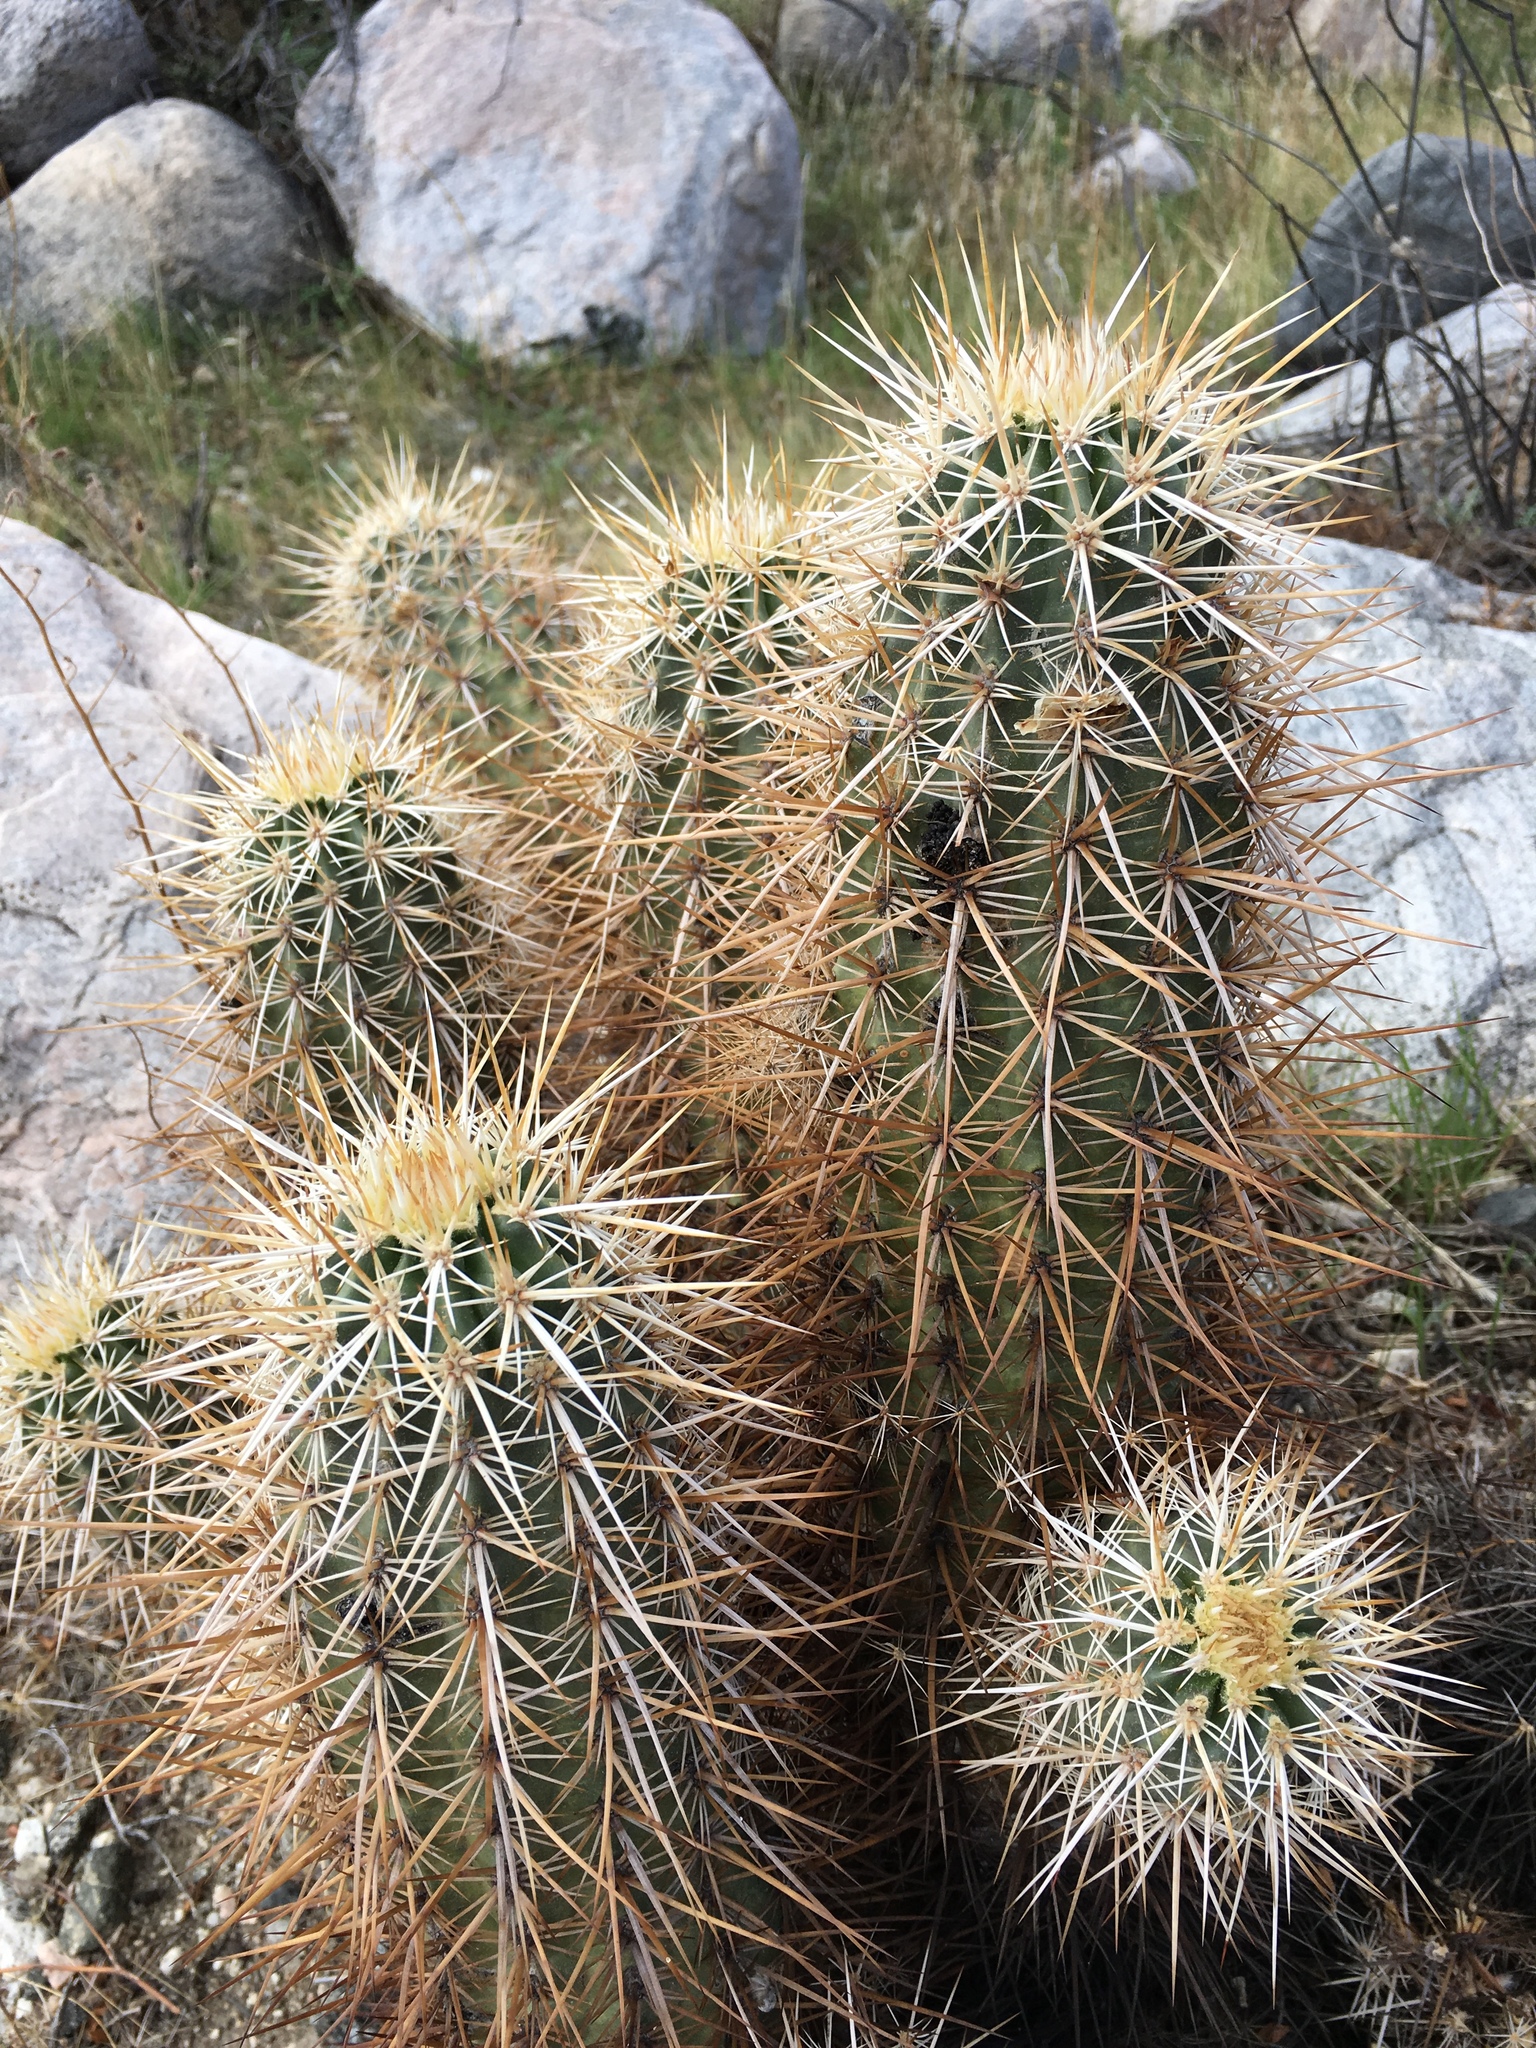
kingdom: Plantae
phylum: Tracheophyta
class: Magnoliopsida
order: Caryophyllales
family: Cactaceae
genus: Echinocereus
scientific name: Echinocereus engelmannii
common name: Engelmann's hedgehog cactus
